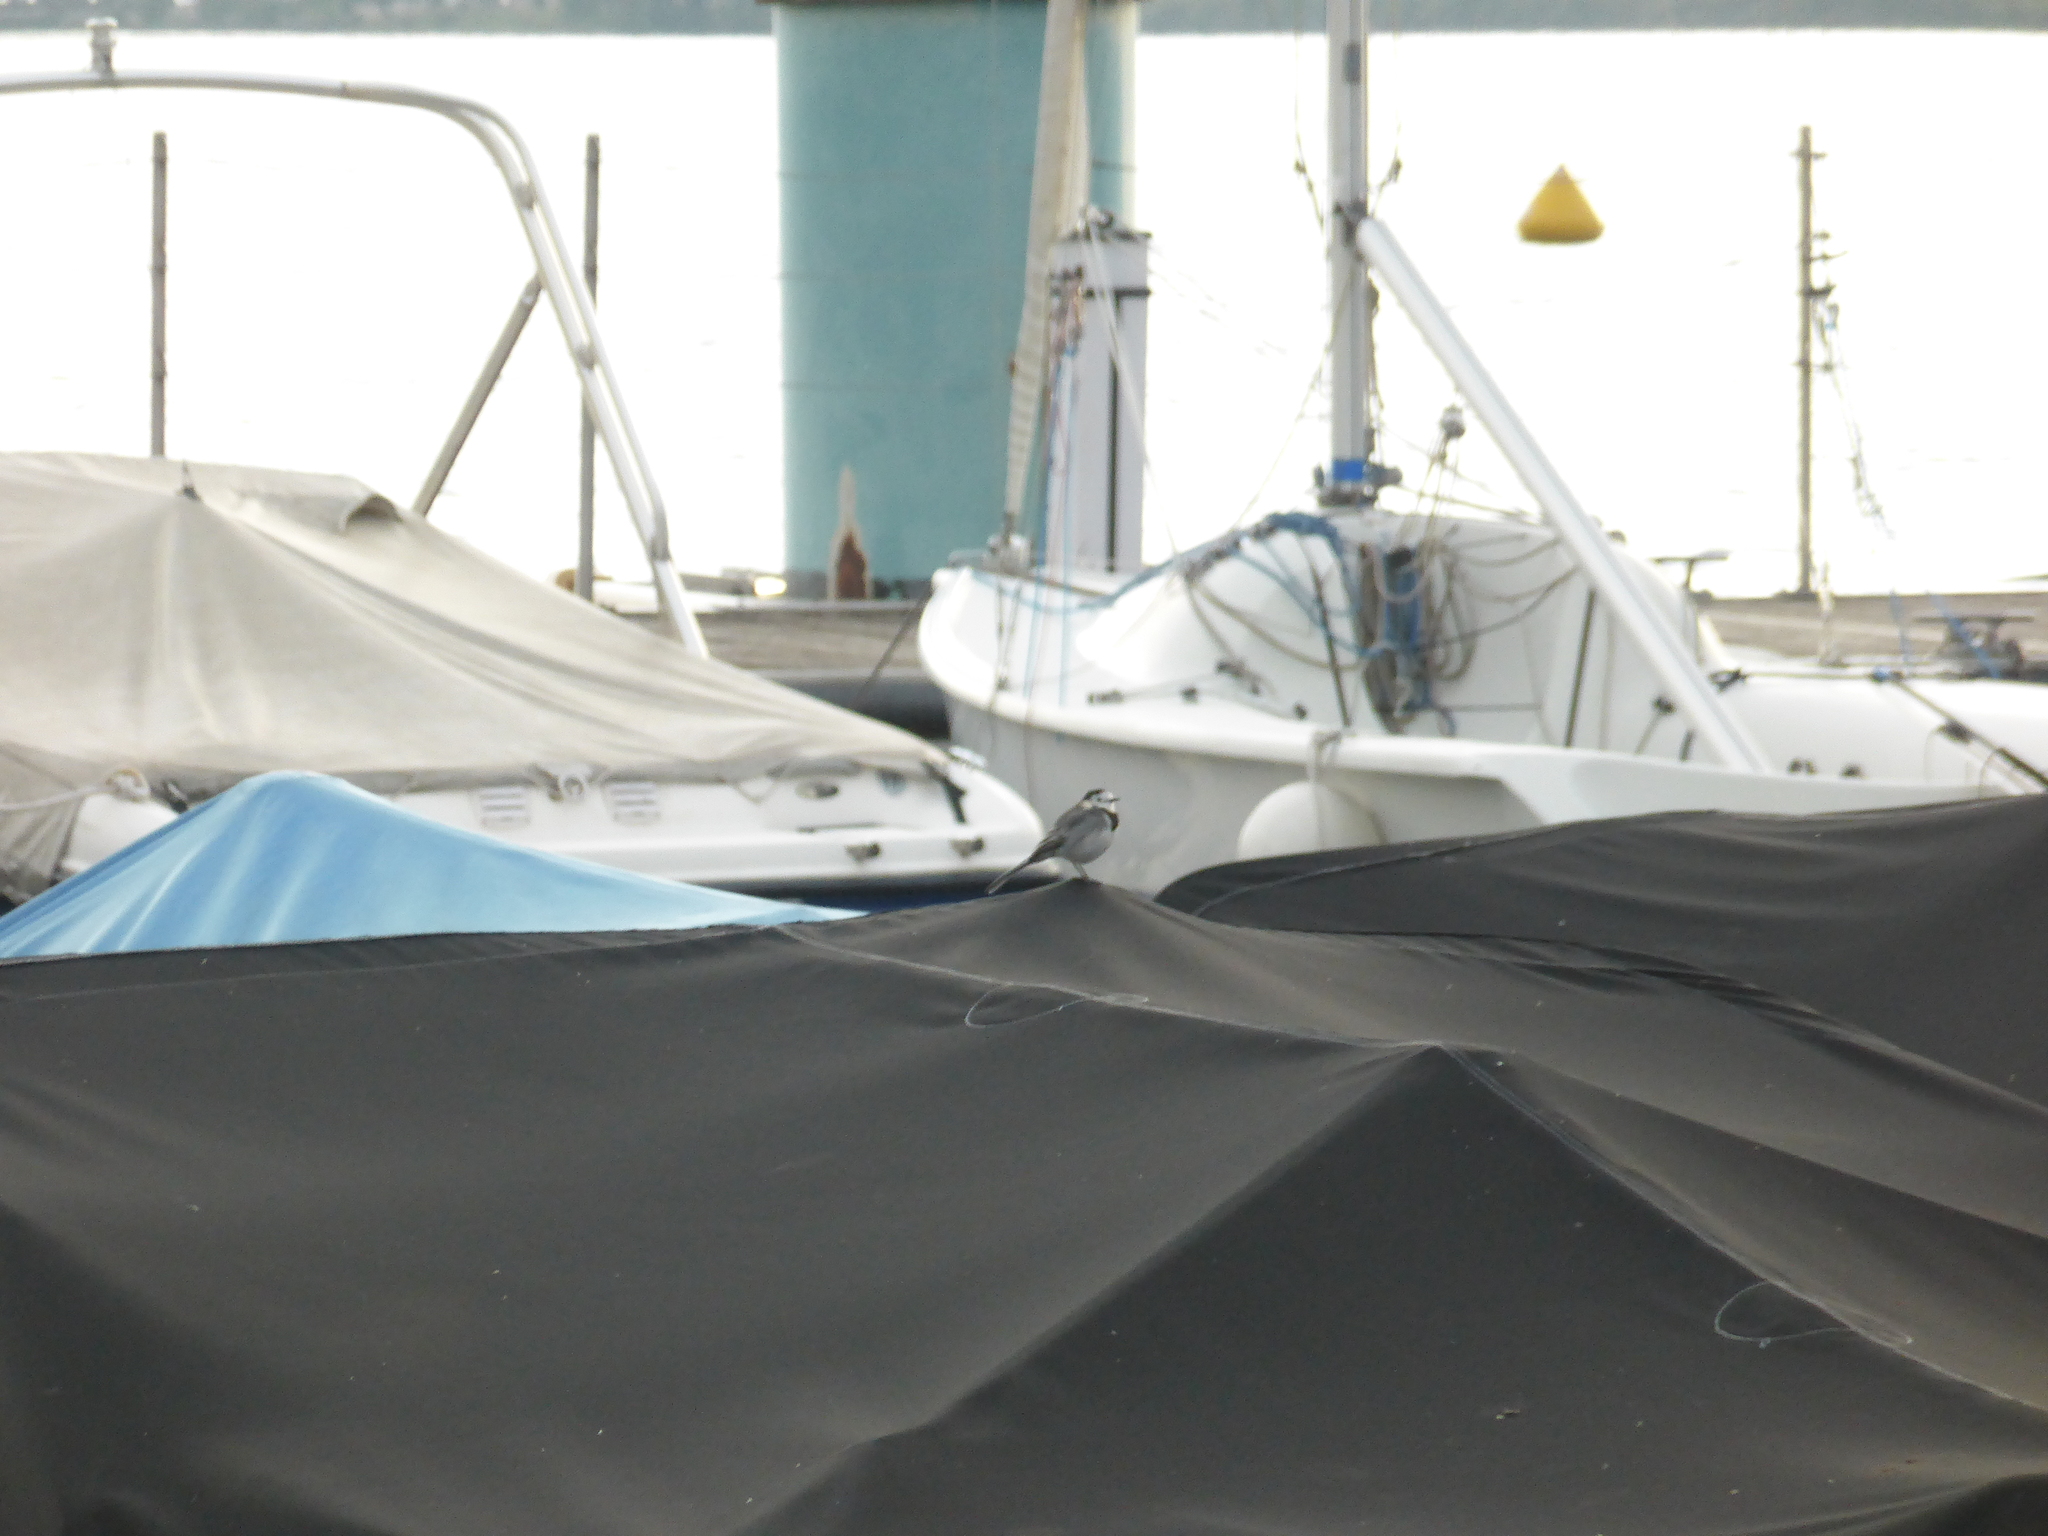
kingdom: Animalia
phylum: Chordata
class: Aves
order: Passeriformes
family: Motacillidae
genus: Motacilla
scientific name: Motacilla alba
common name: White wagtail
